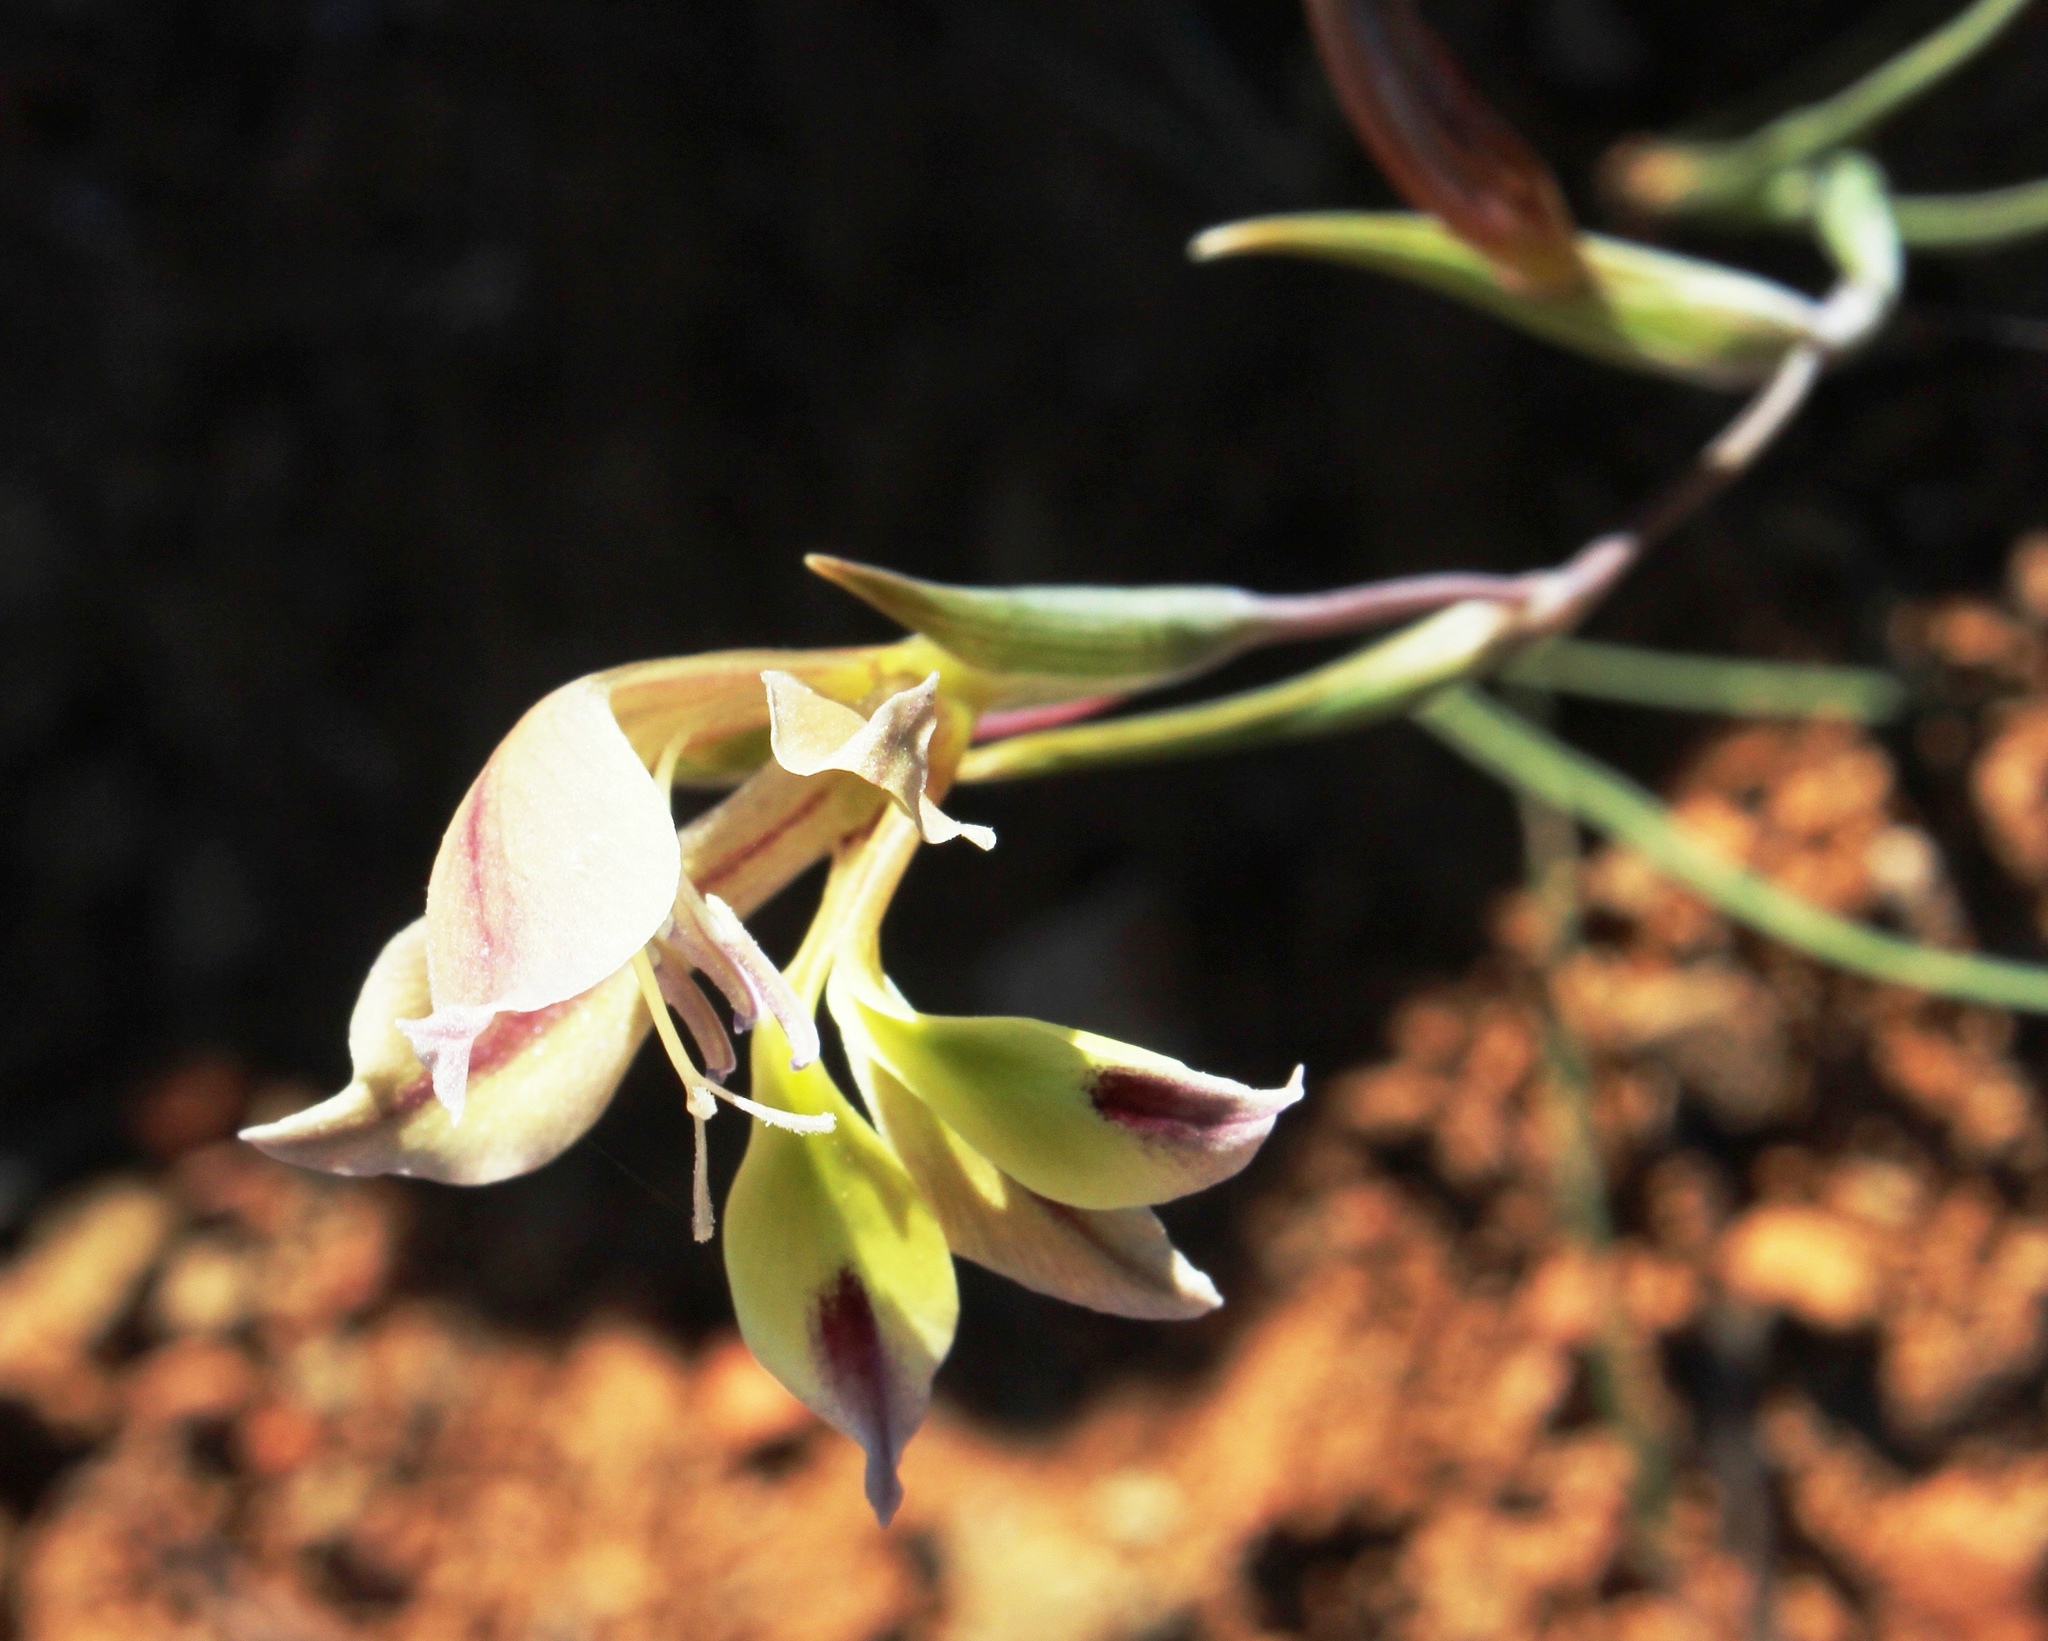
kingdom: Plantae
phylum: Tracheophyta
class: Liliopsida
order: Asparagales
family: Iridaceae
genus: Gladiolus
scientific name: Gladiolus scullyi
